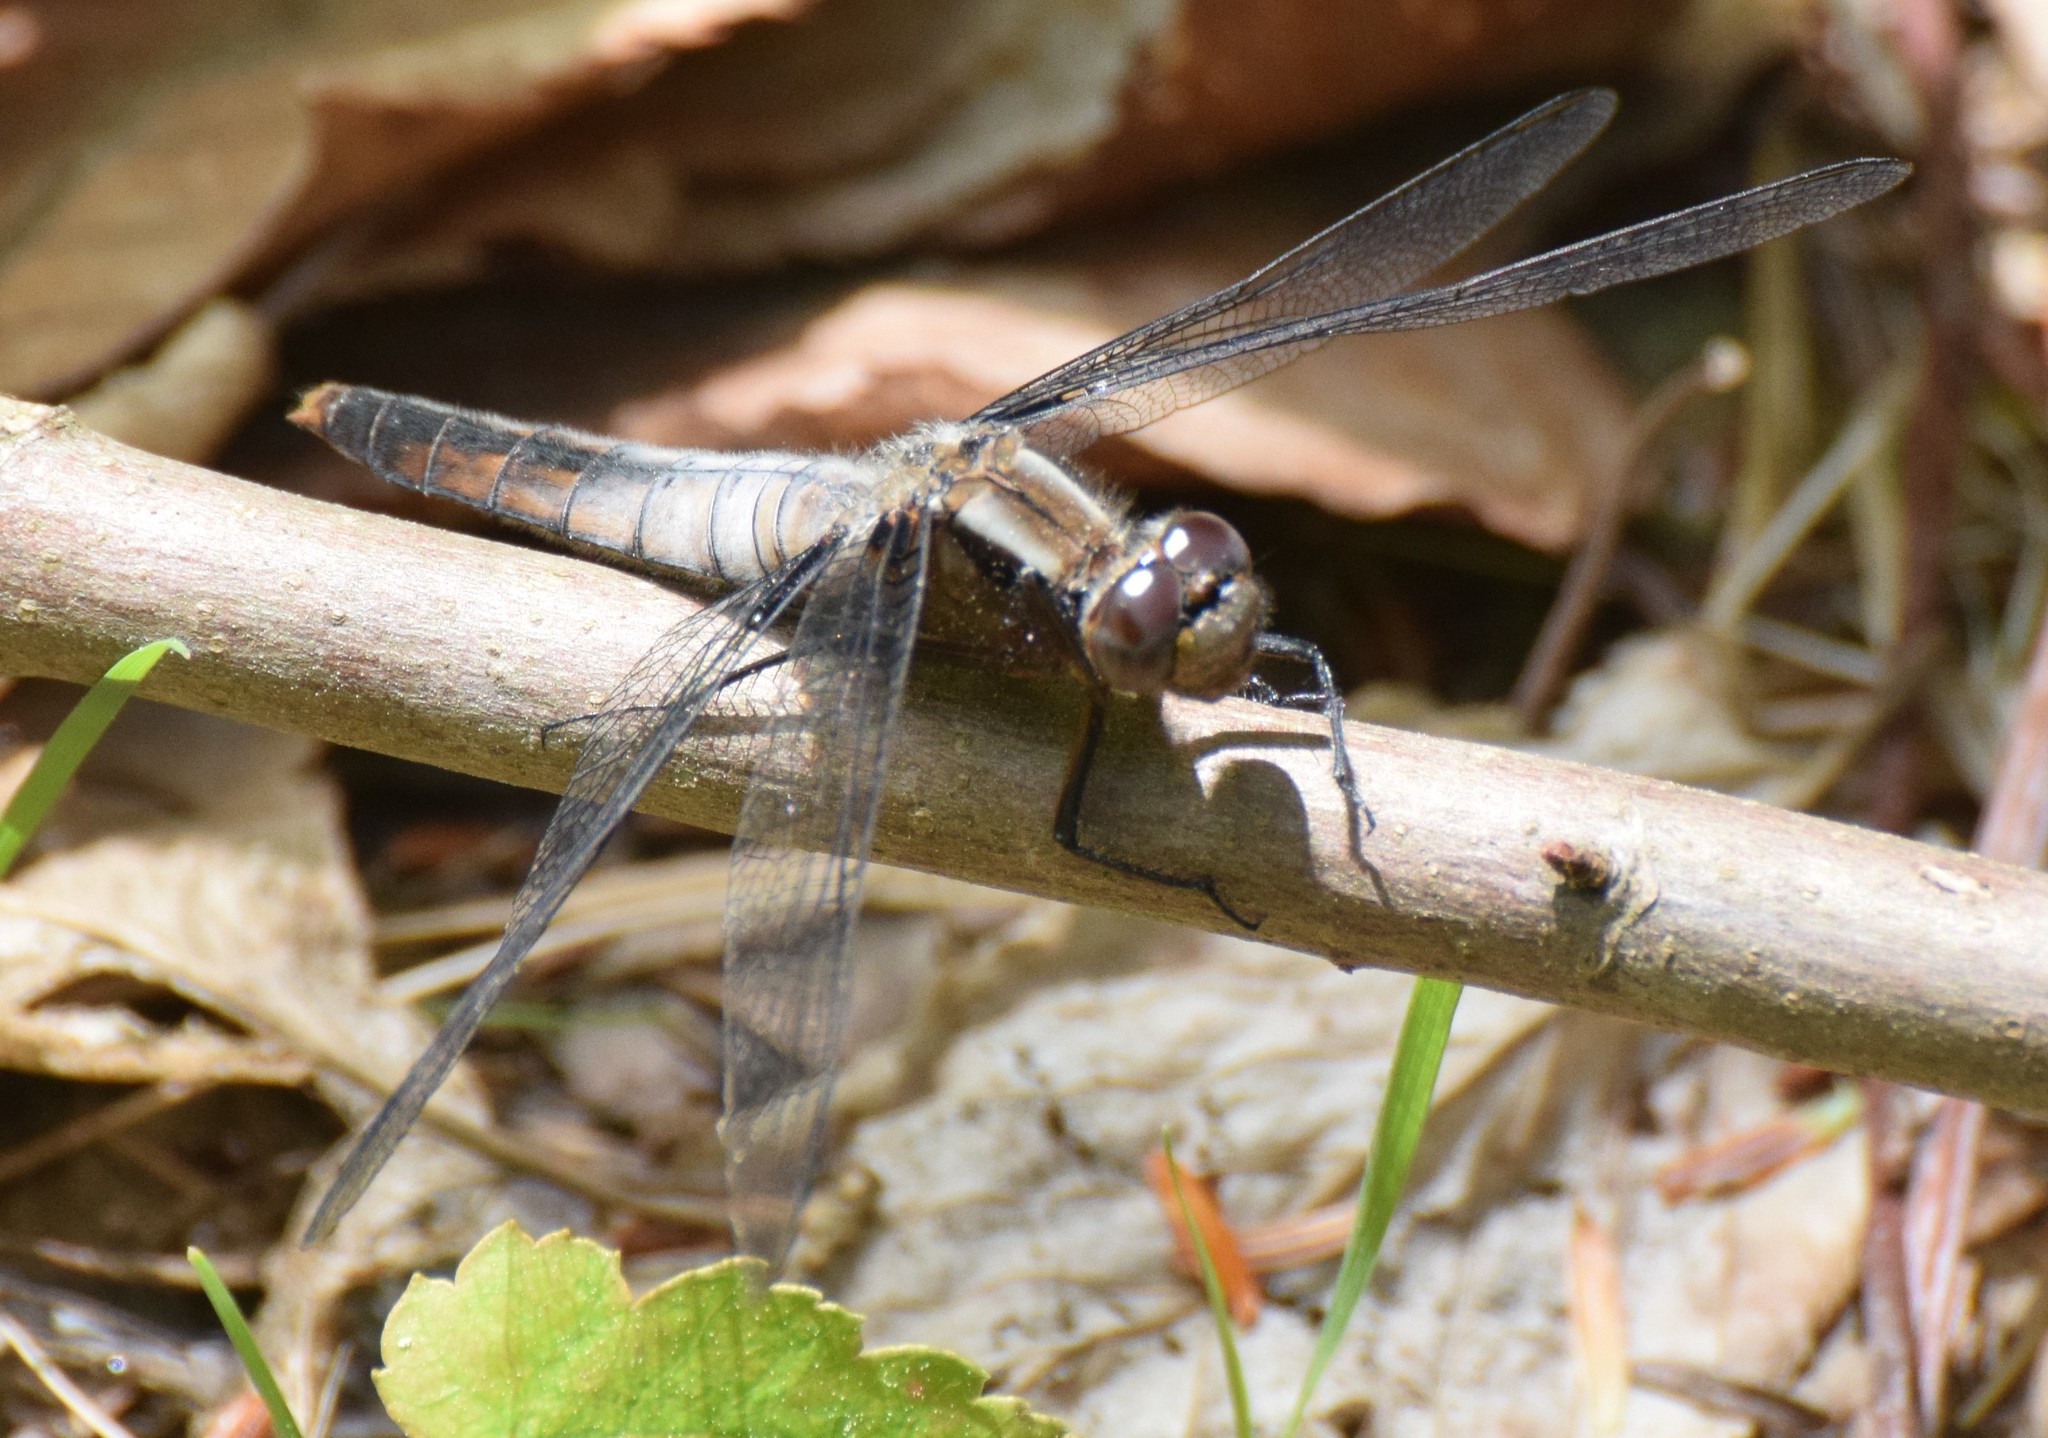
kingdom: Animalia
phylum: Arthropoda
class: Insecta
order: Odonata
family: Libellulidae
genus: Ladona
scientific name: Ladona julia
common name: Chalk-fronted corporal
